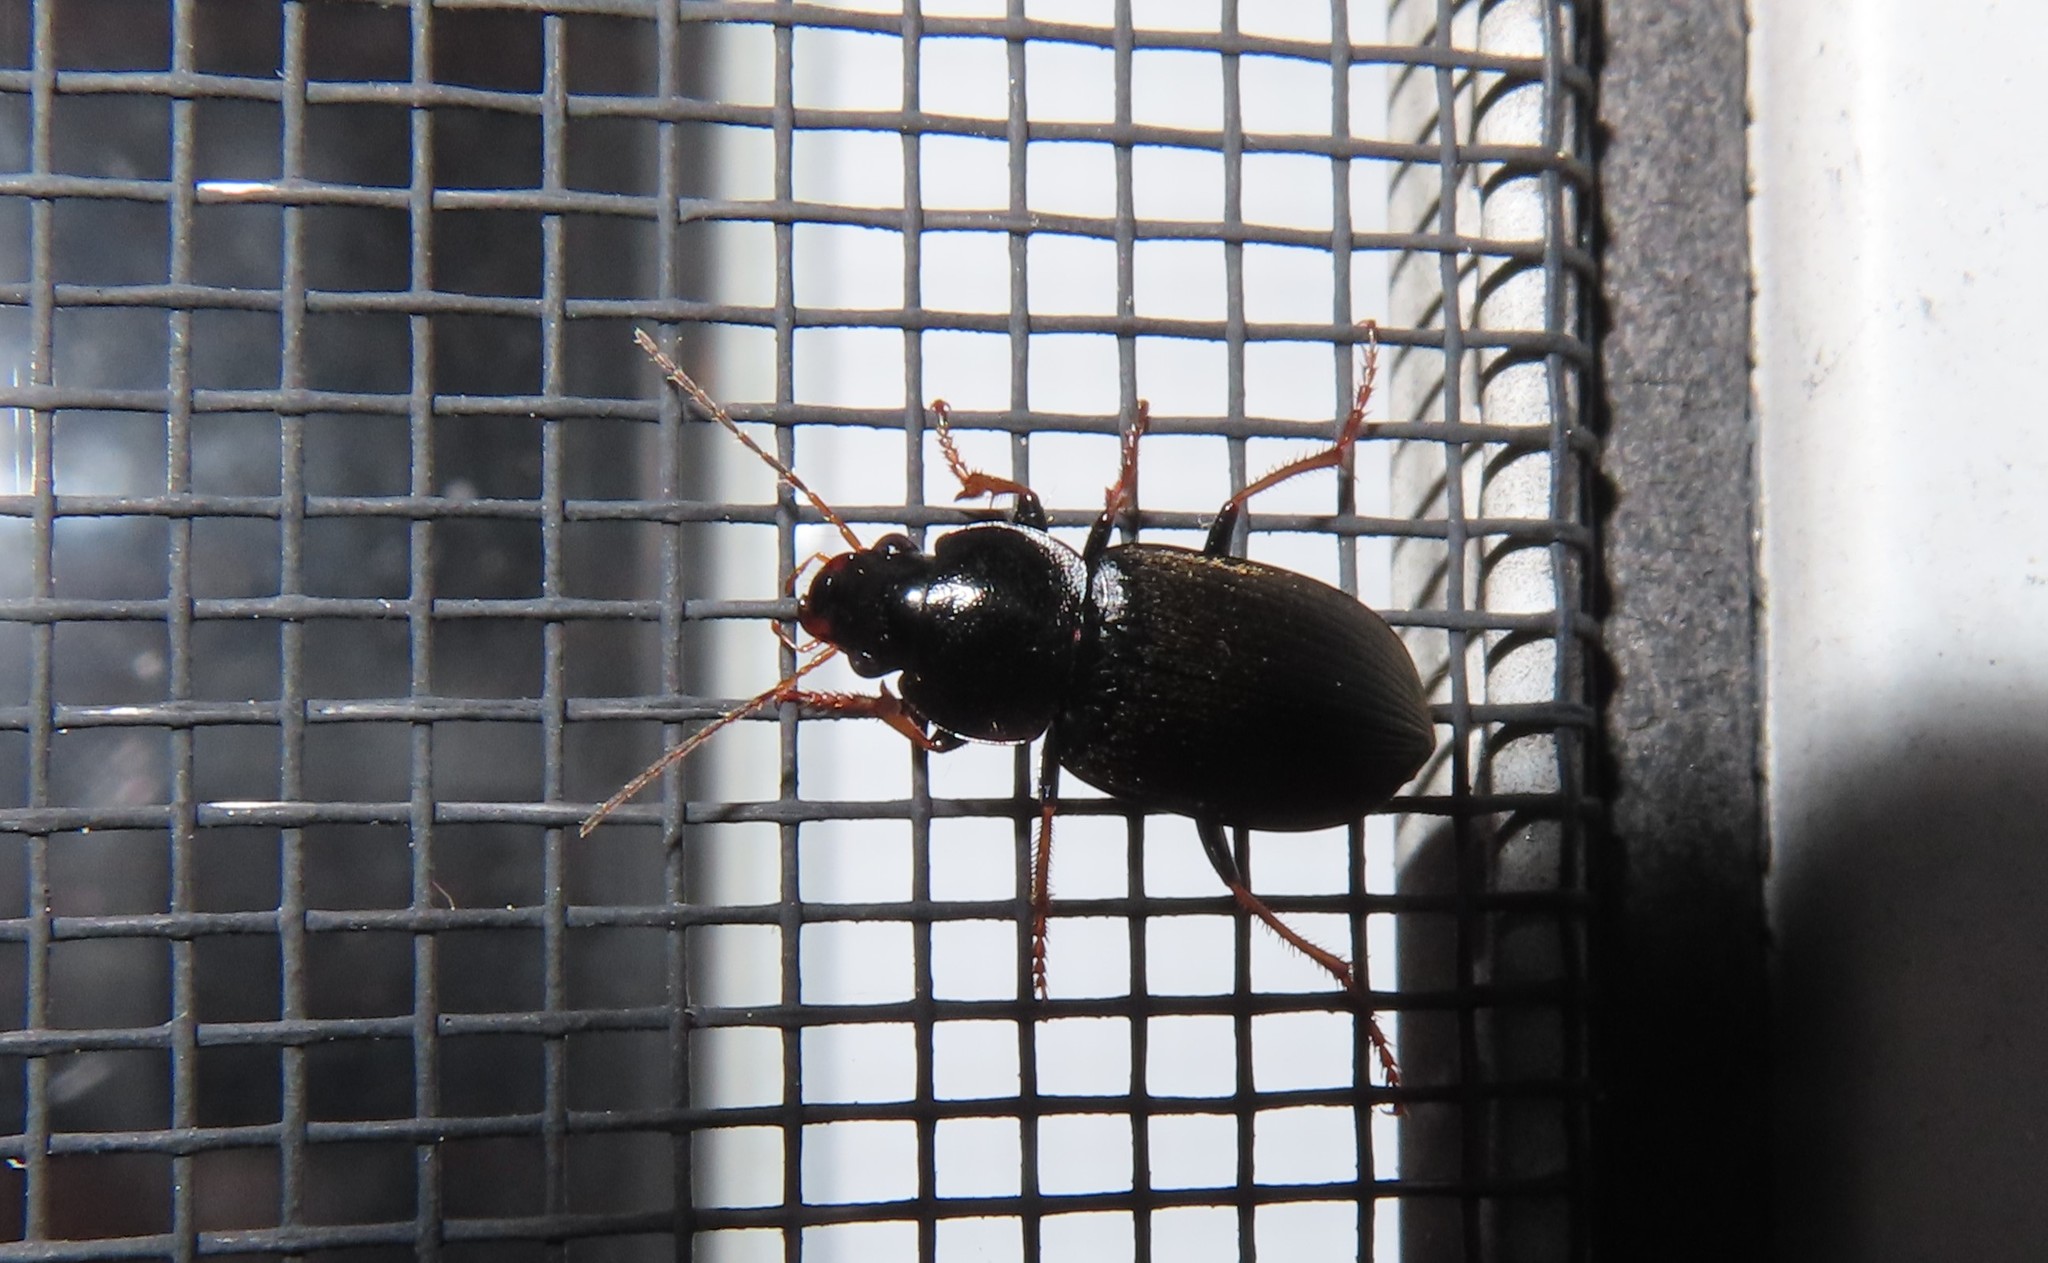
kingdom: Animalia
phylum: Arthropoda
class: Insecta
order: Coleoptera
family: Carabidae
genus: Amphasia
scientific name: Amphasia sericea
